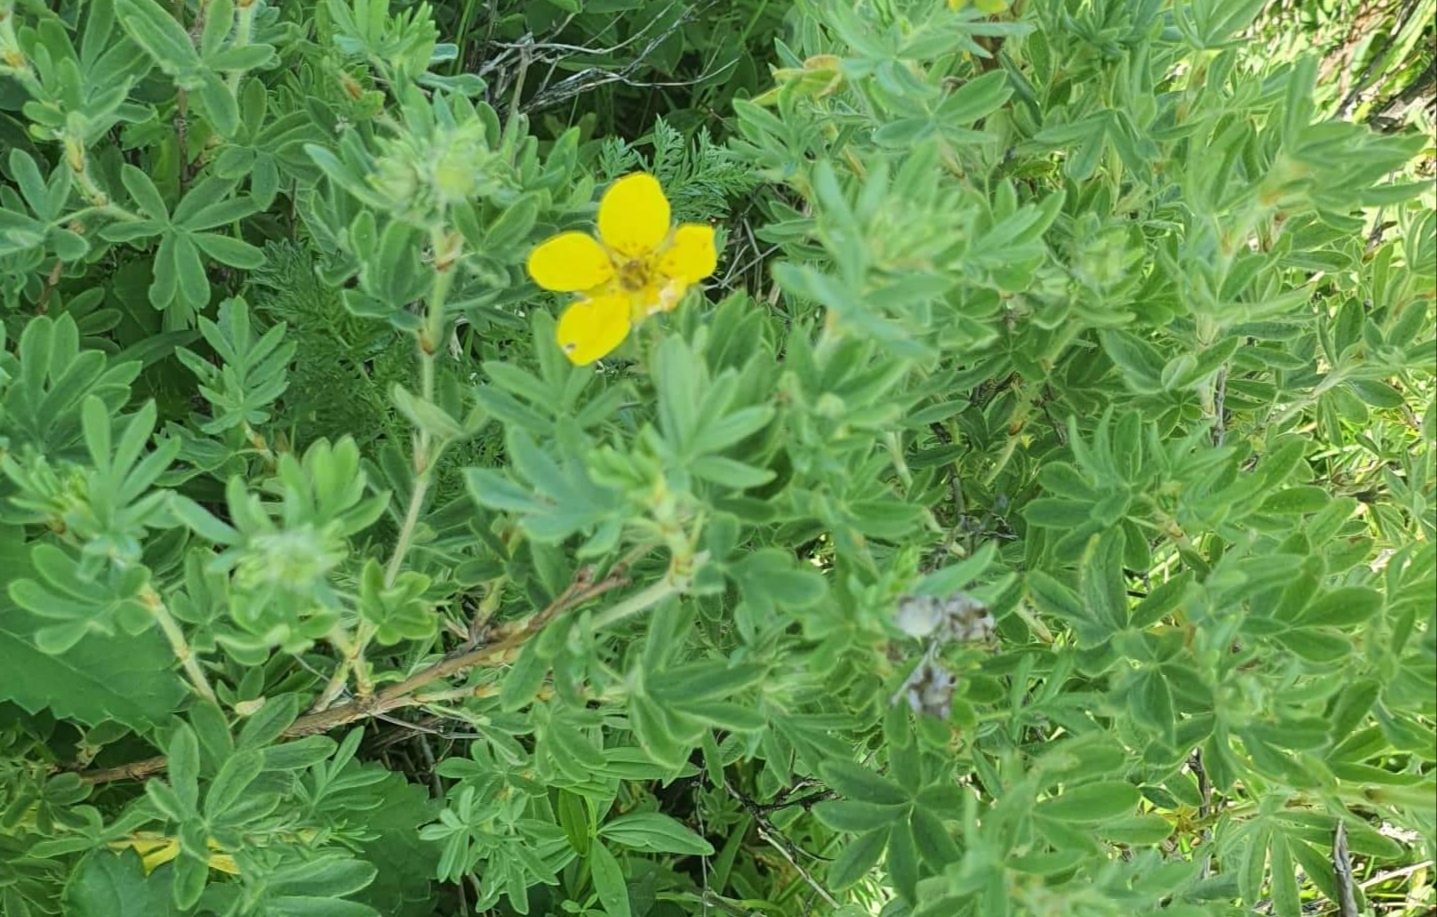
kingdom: Plantae
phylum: Tracheophyta
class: Magnoliopsida
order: Rosales
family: Rosaceae
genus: Dasiphora
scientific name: Dasiphora fruticosa
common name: Shrubby cinquefoil
